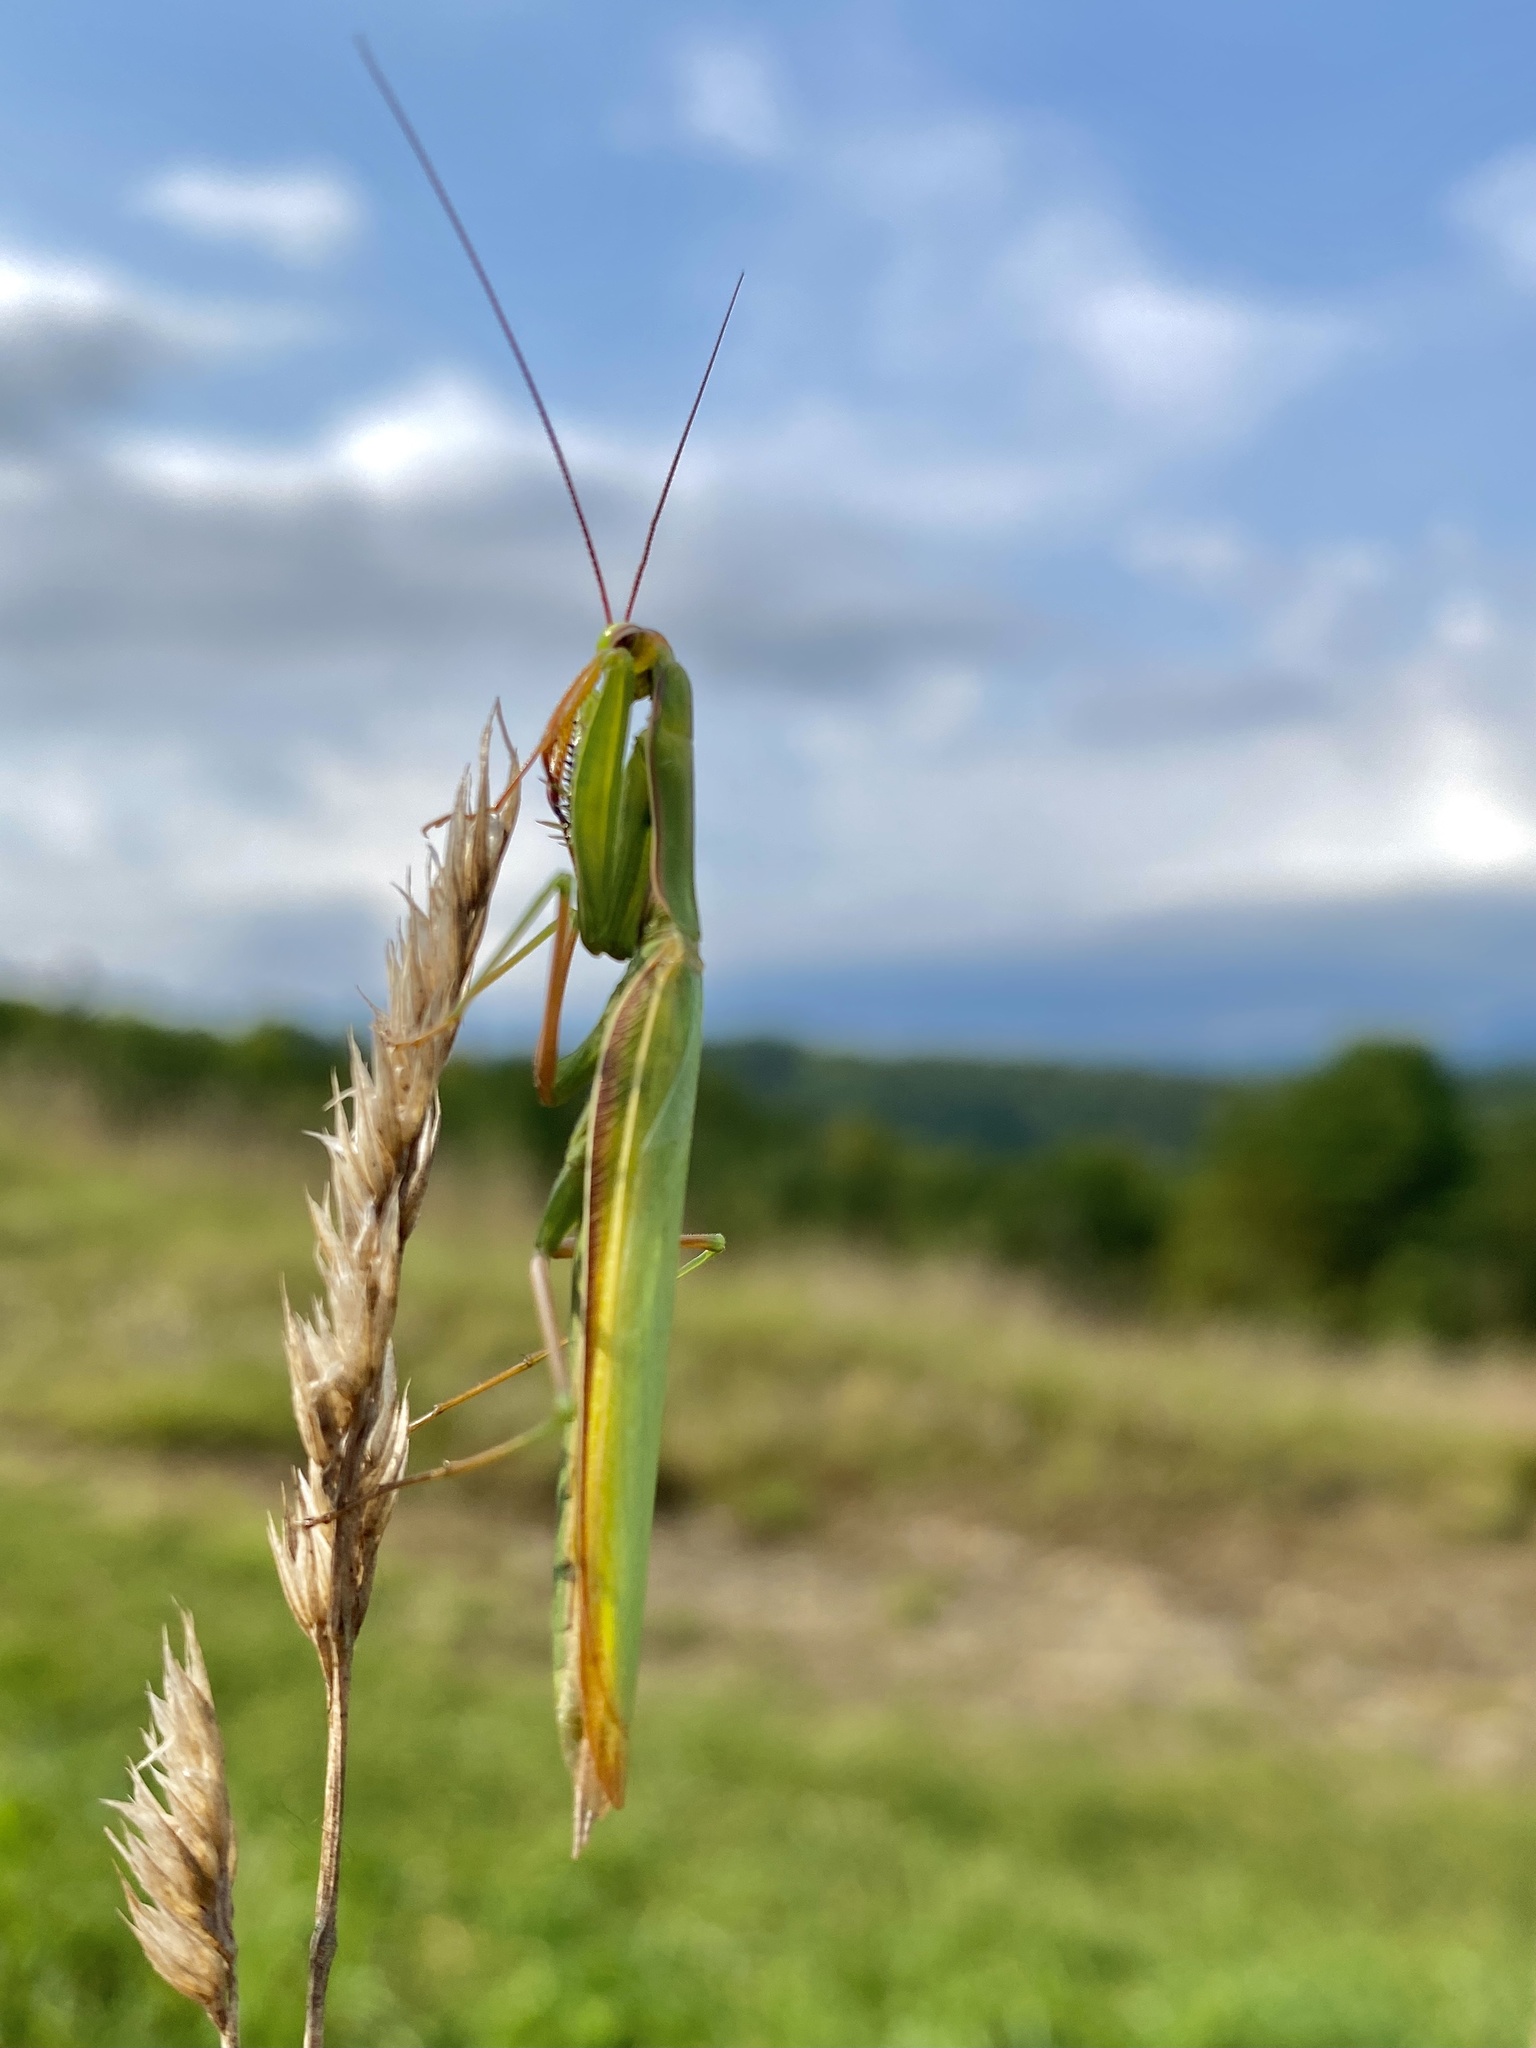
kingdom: Animalia
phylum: Arthropoda
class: Insecta
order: Mantodea
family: Mantidae
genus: Mantis
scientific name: Mantis religiosa
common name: Praying mantis
